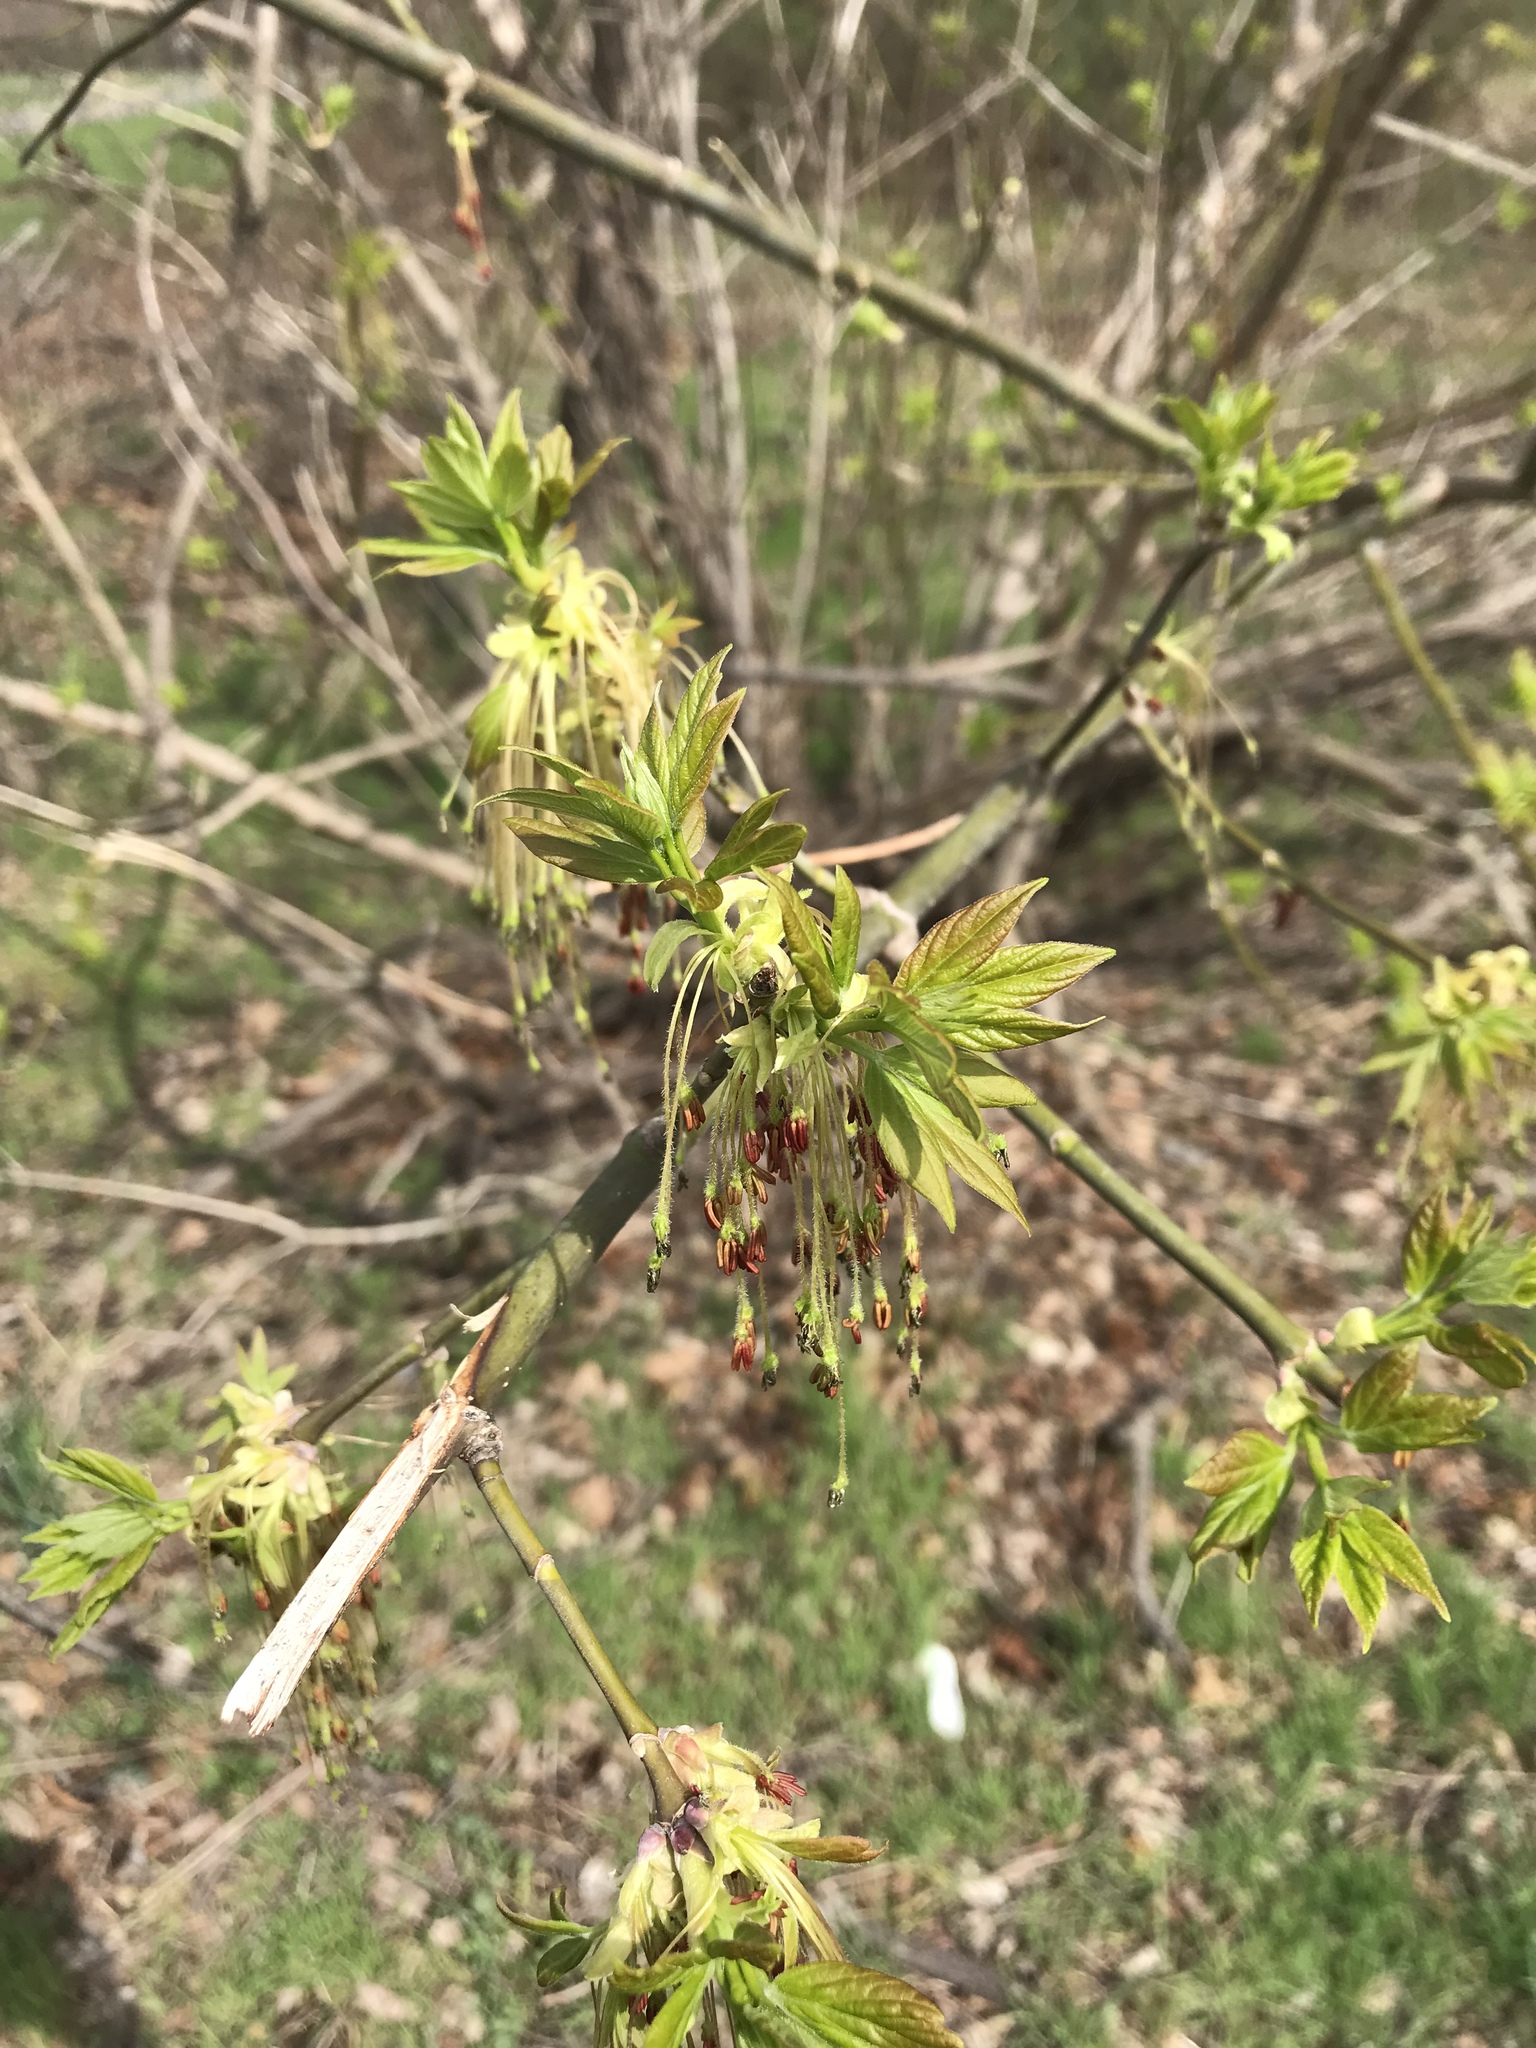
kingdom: Plantae
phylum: Tracheophyta
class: Magnoliopsida
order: Sapindales
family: Sapindaceae
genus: Acer
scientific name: Acer negundo
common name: Ashleaf maple
